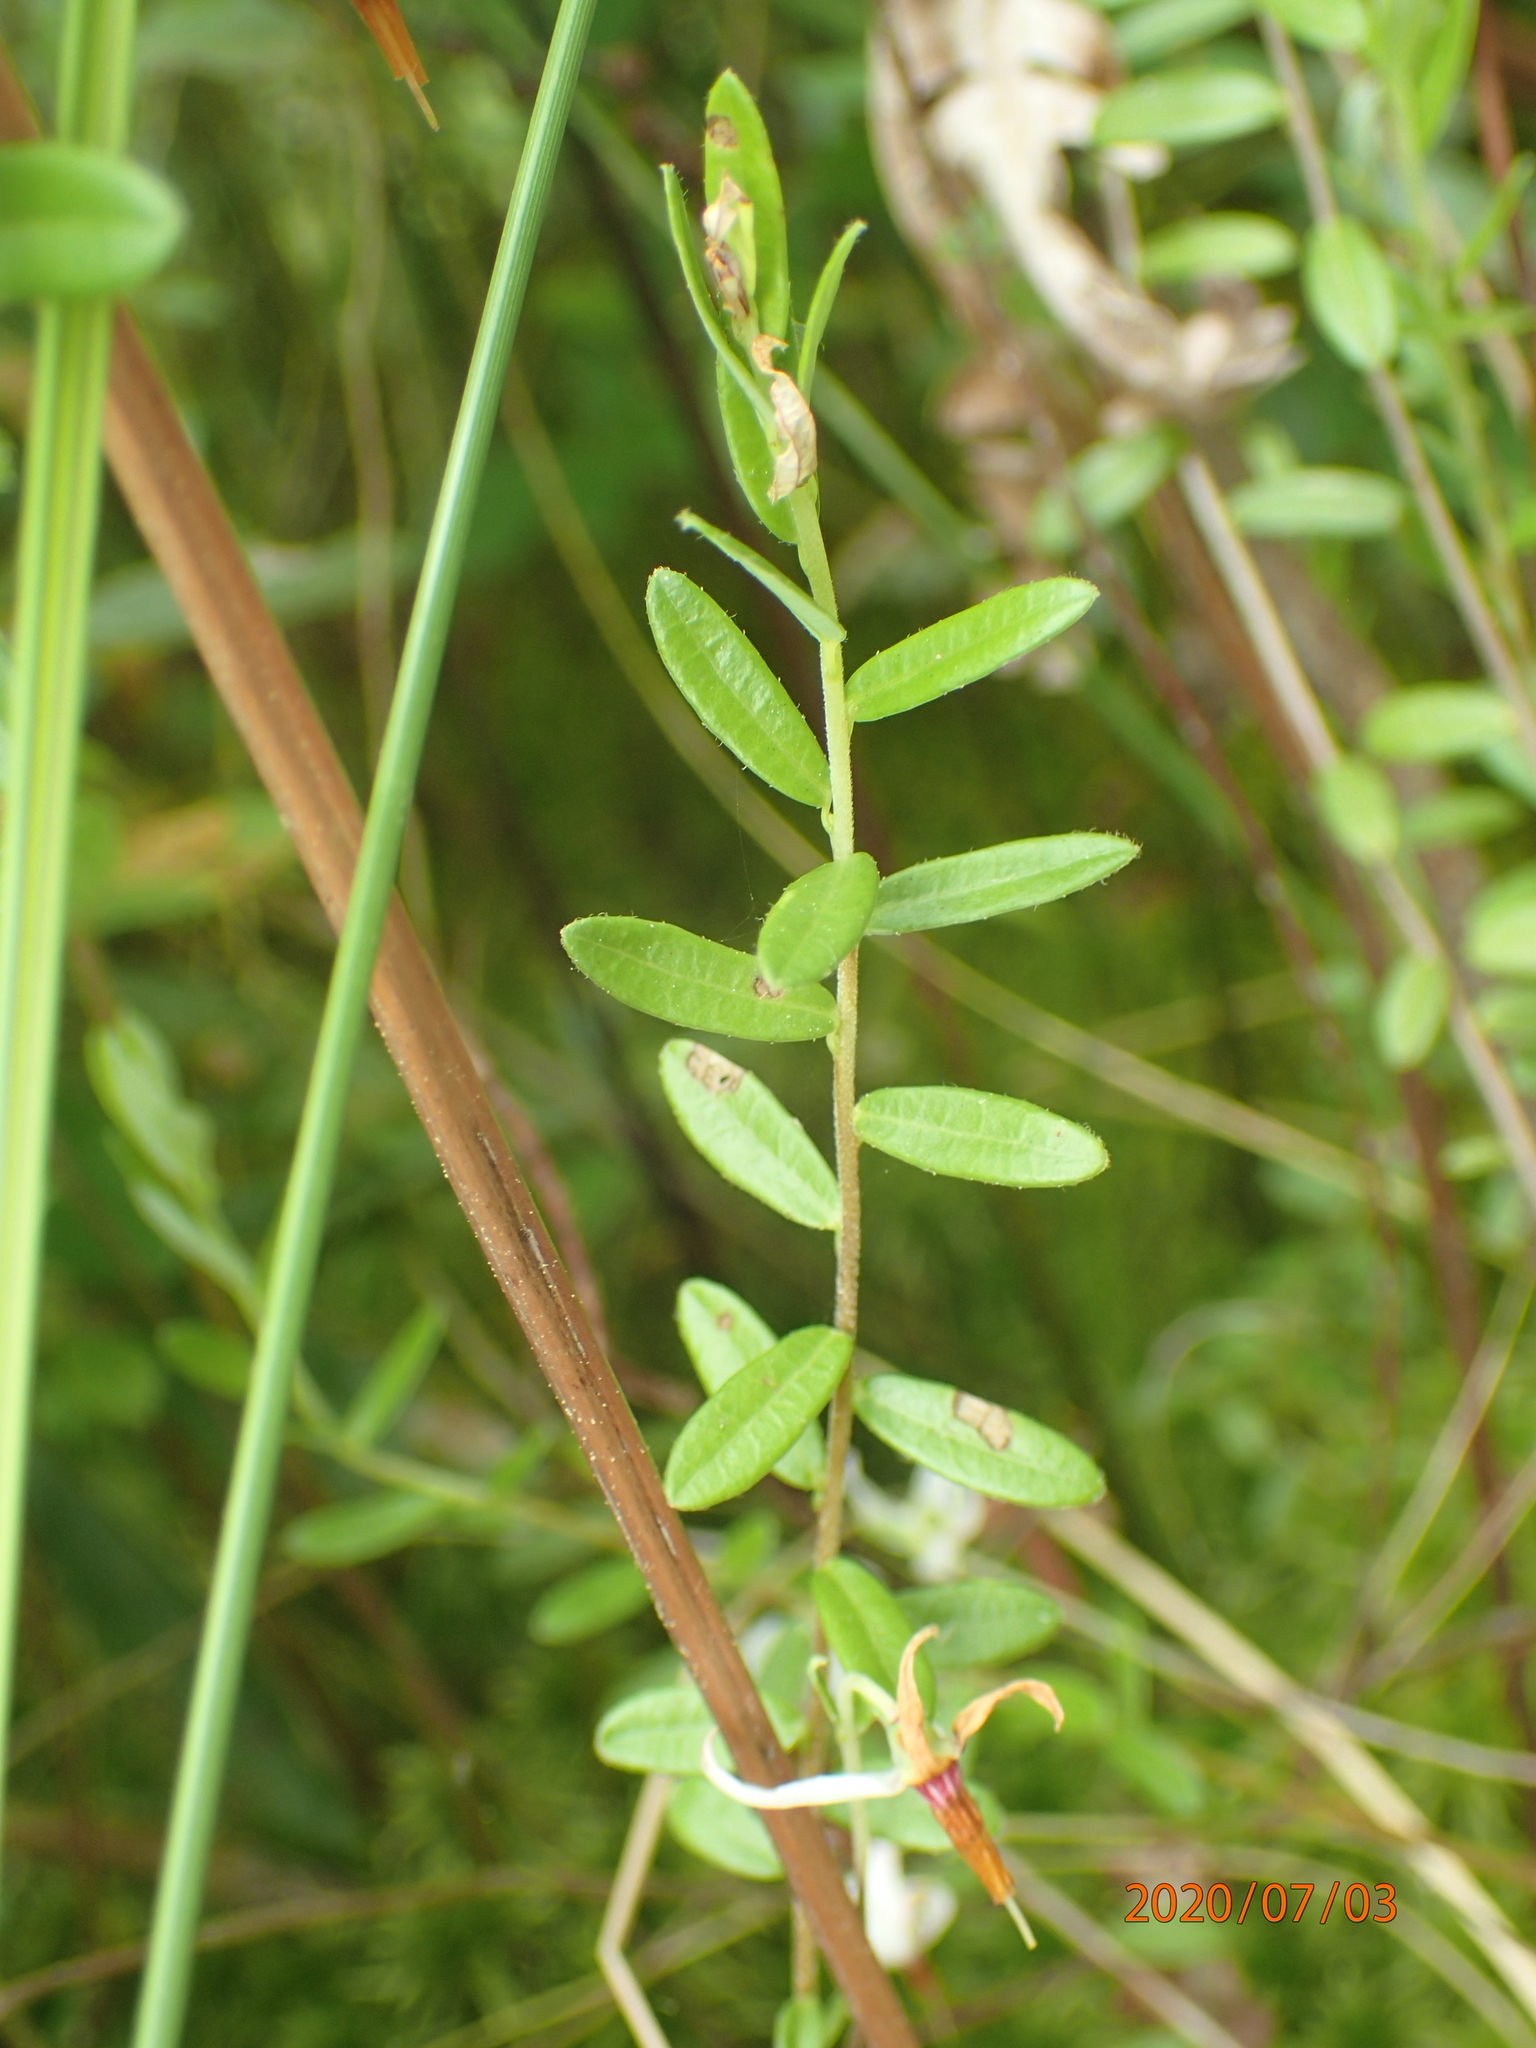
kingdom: Plantae
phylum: Tracheophyta
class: Magnoliopsida
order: Ericales
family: Ericaceae
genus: Vaccinium
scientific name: Vaccinium macrocarpon
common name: American cranberry
